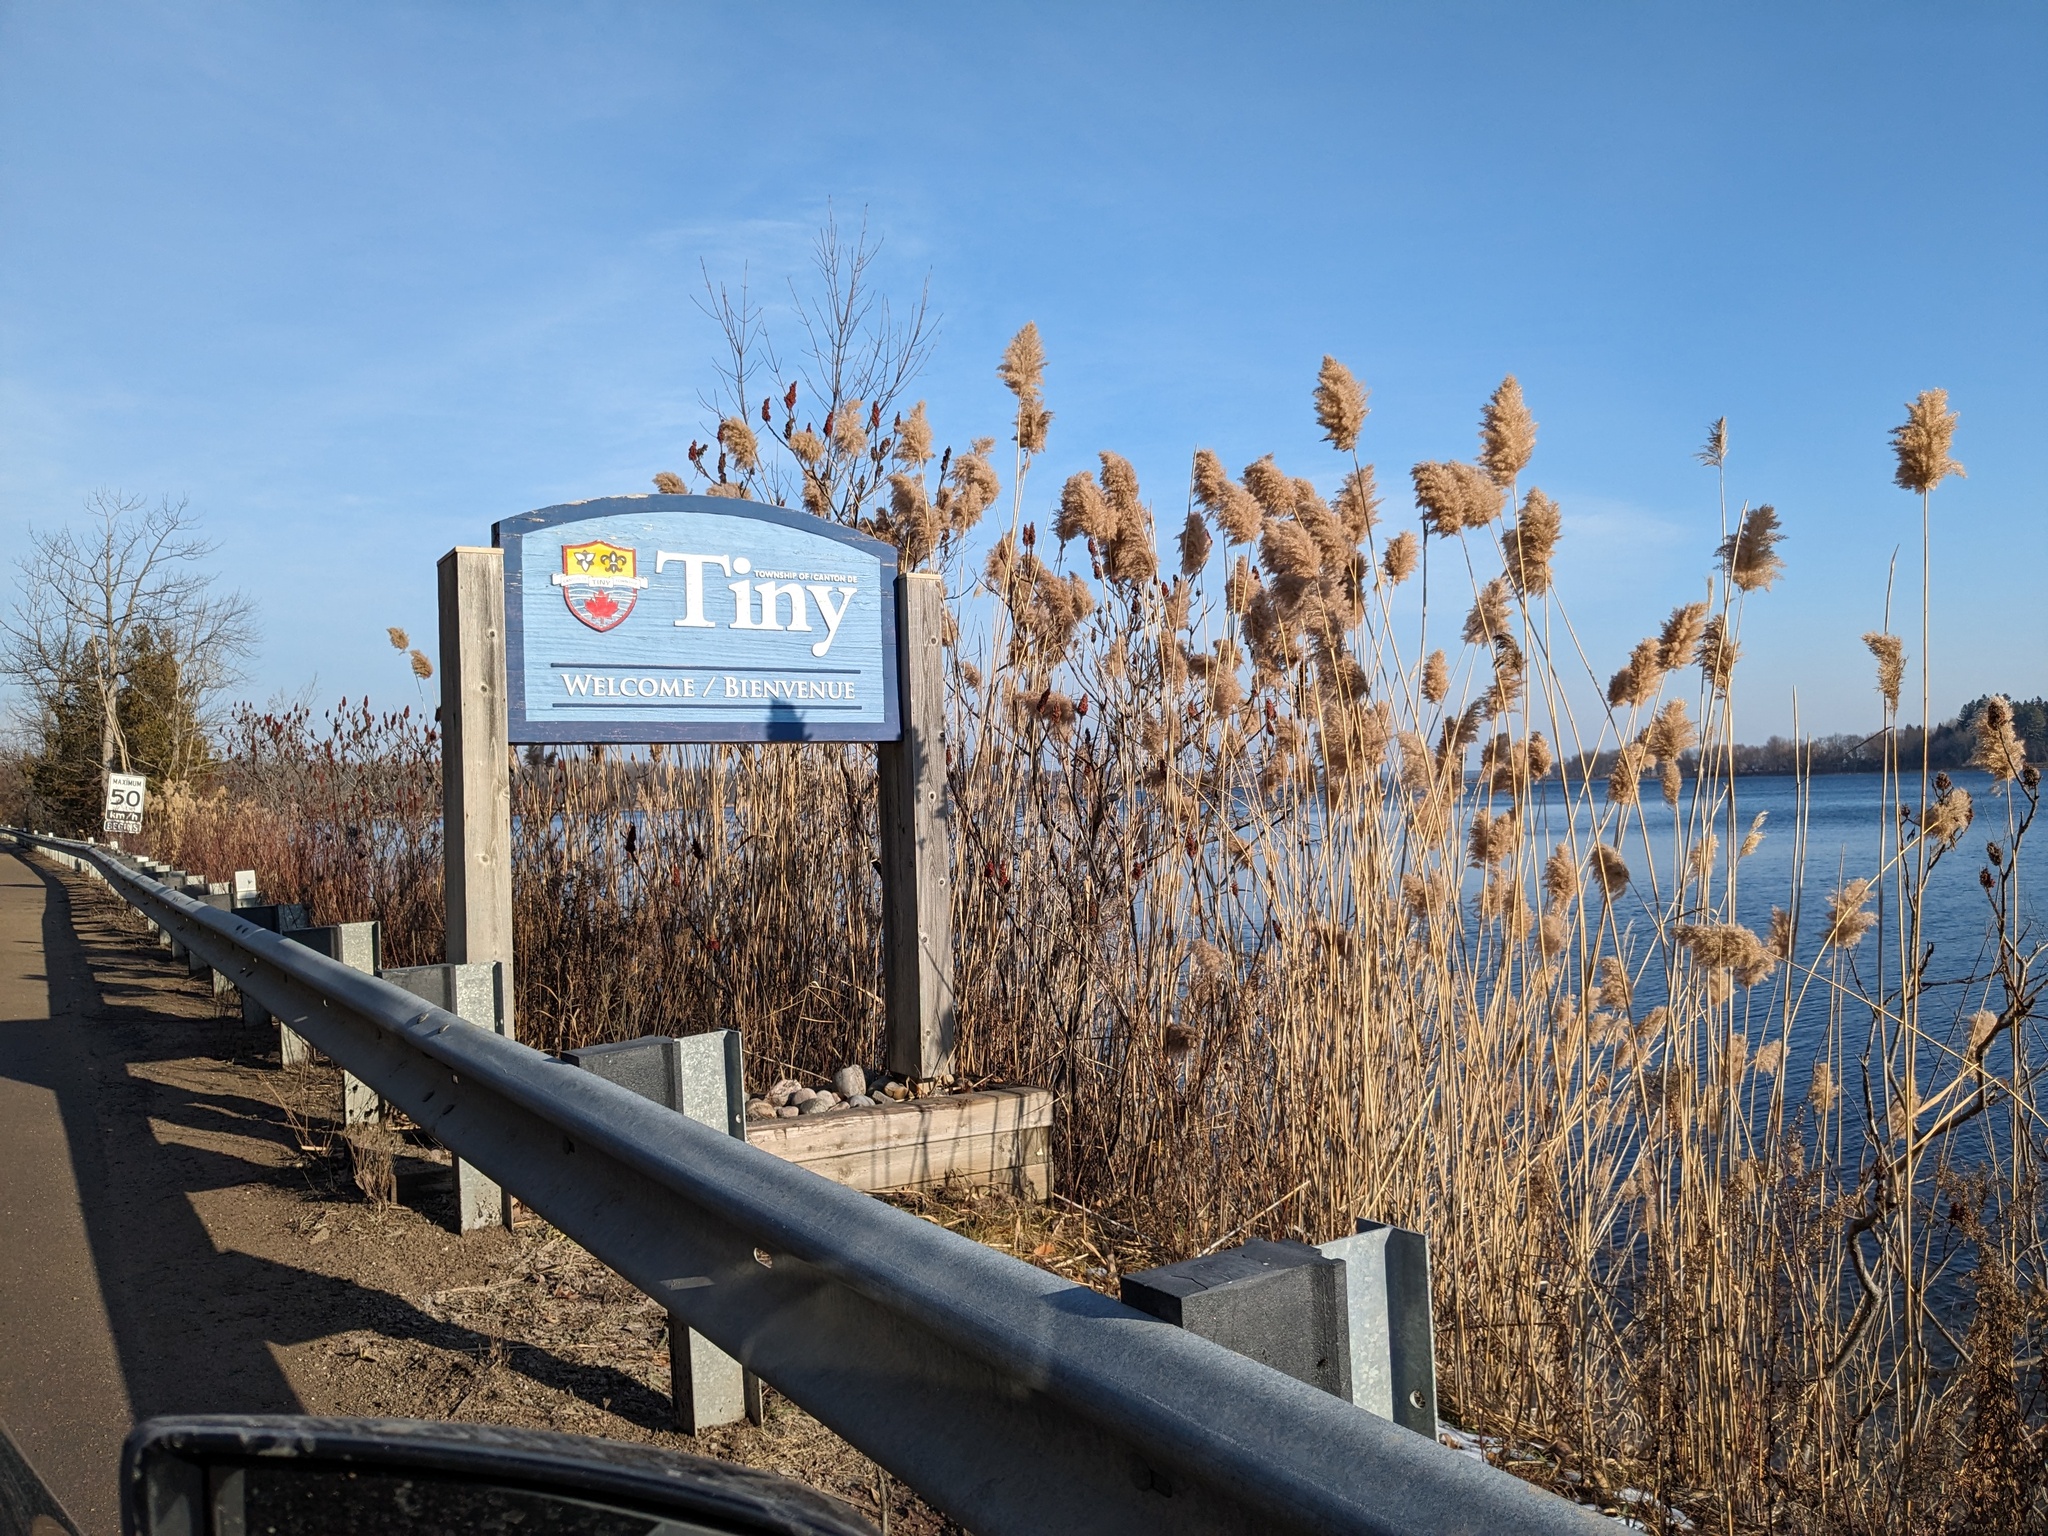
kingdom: Plantae
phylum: Tracheophyta
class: Liliopsida
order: Poales
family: Poaceae
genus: Phragmites
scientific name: Phragmites australis
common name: Common reed
